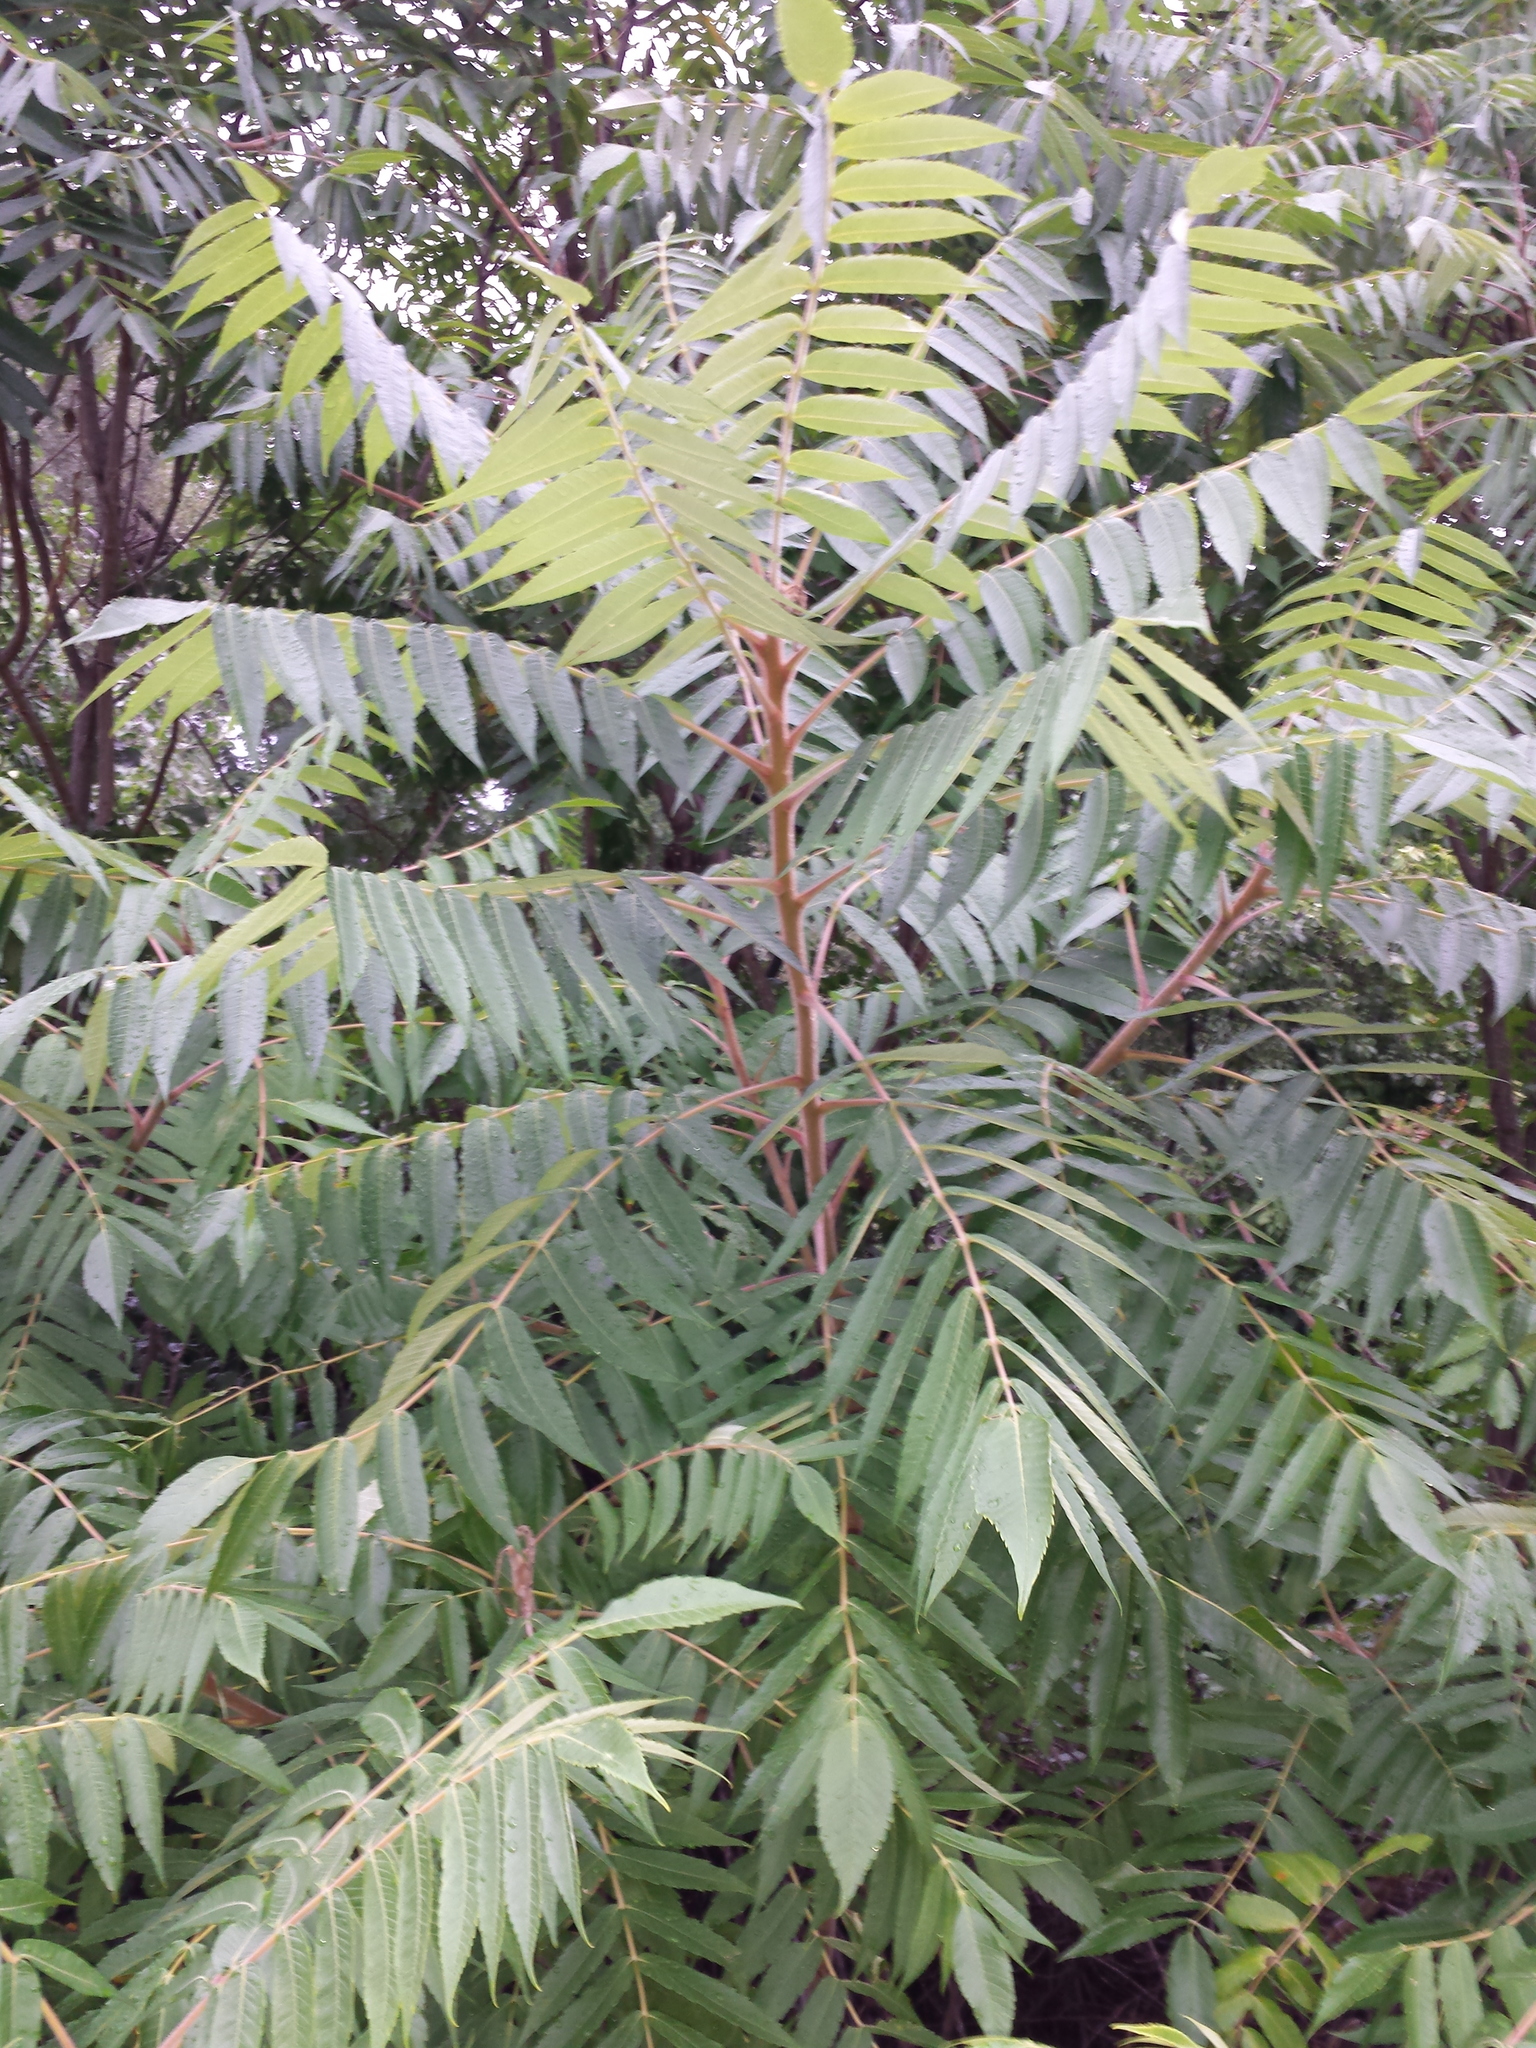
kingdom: Plantae
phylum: Tracheophyta
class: Magnoliopsida
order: Sapindales
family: Anacardiaceae
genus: Rhus
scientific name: Rhus typhina
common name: Staghorn sumac
